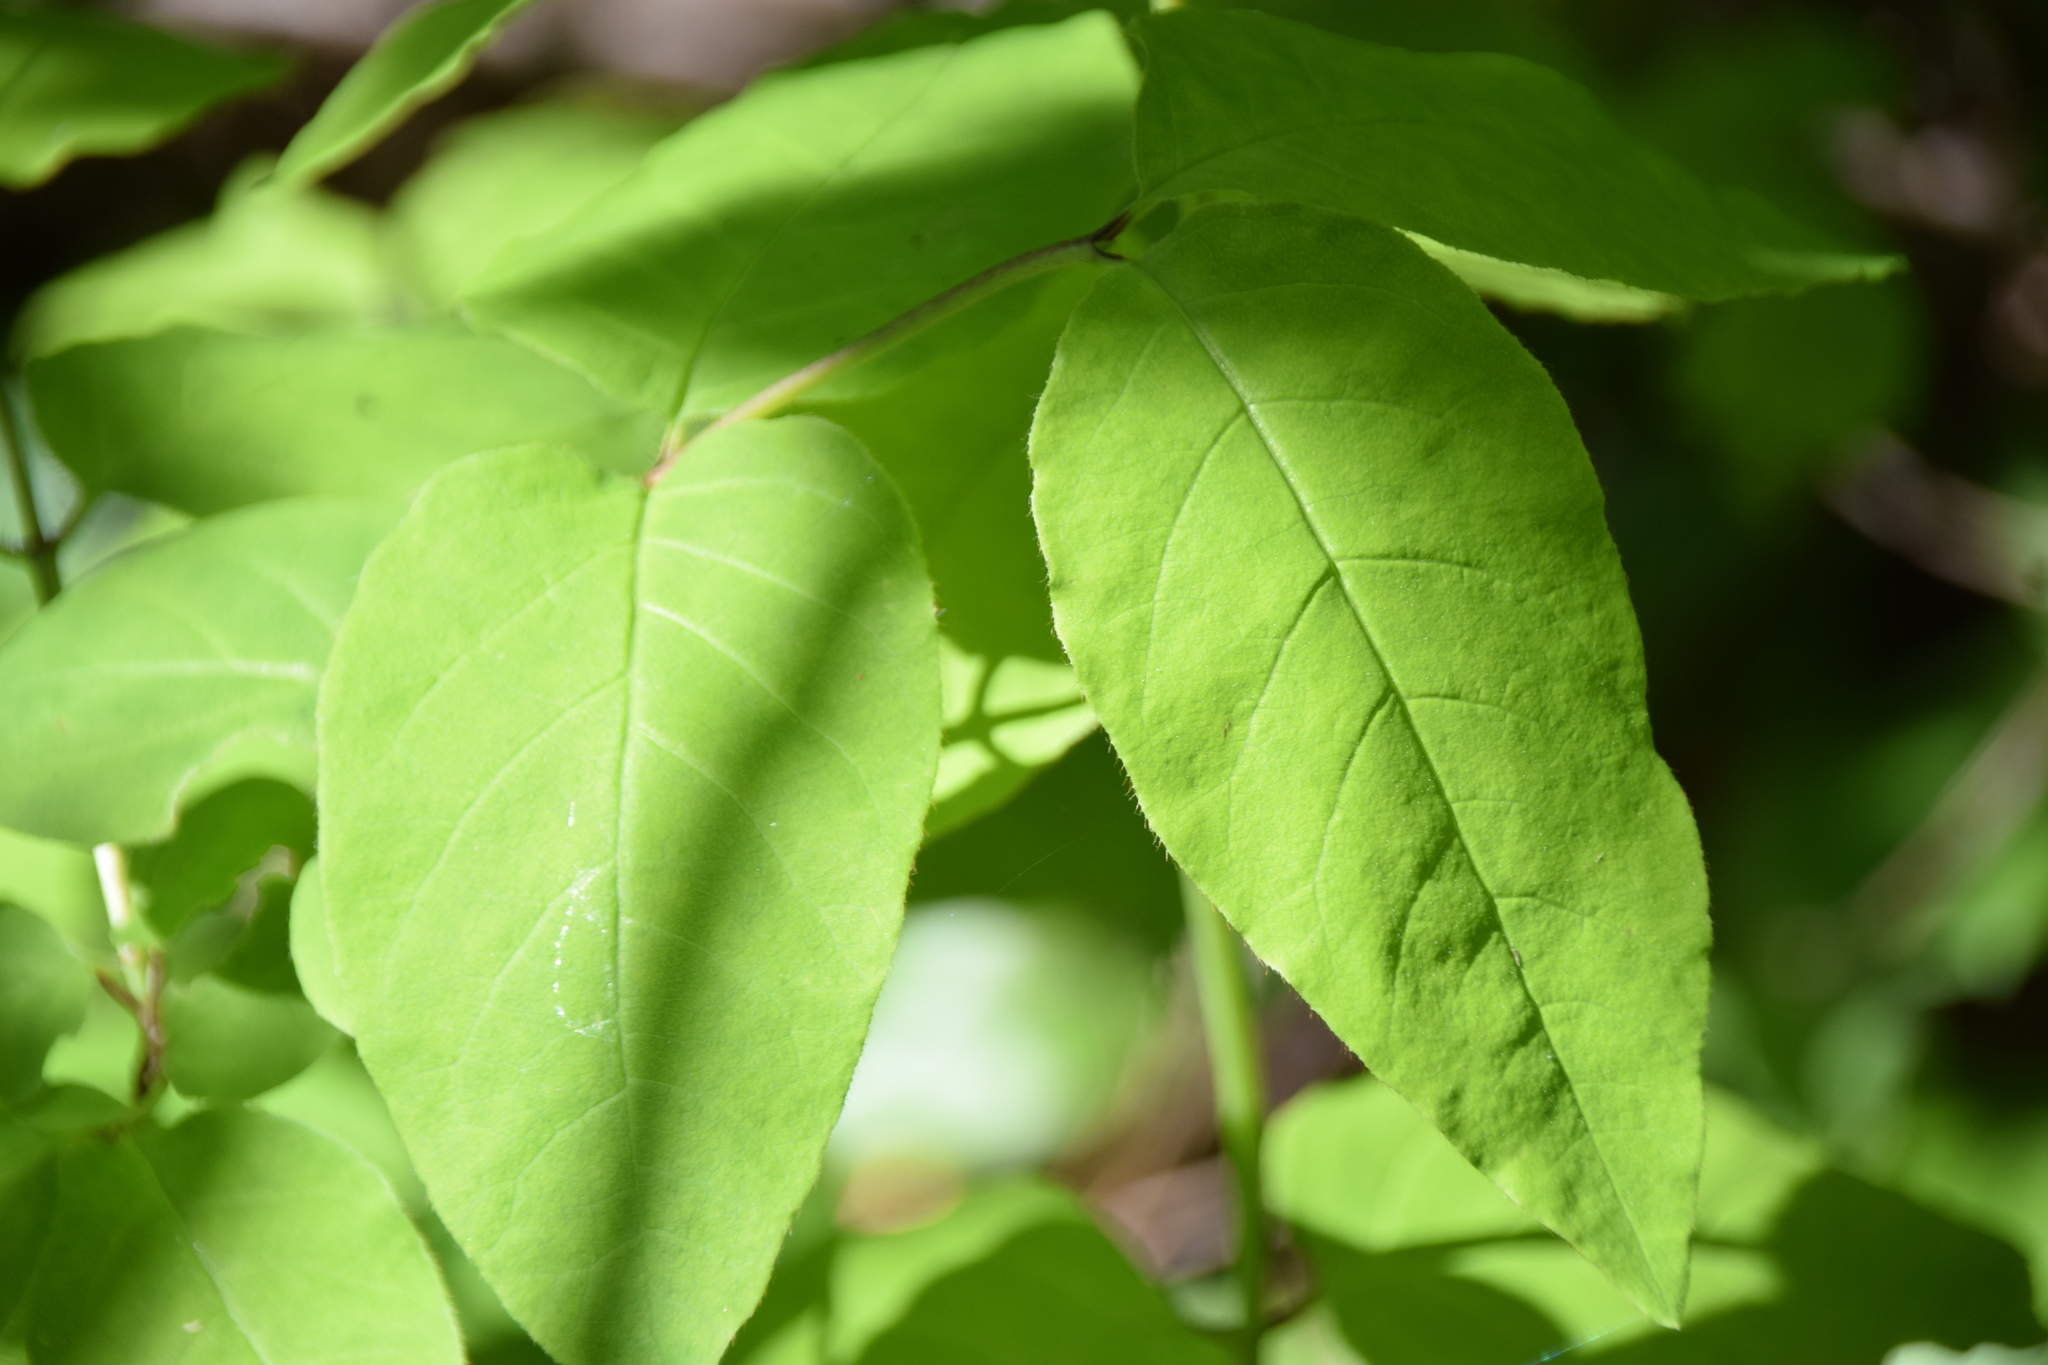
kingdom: Plantae
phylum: Tracheophyta
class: Magnoliopsida
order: Dipsacales
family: Caprifoliaceae
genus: Lonicera
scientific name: Lonicera canadensis
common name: American fly-honeysuckle
